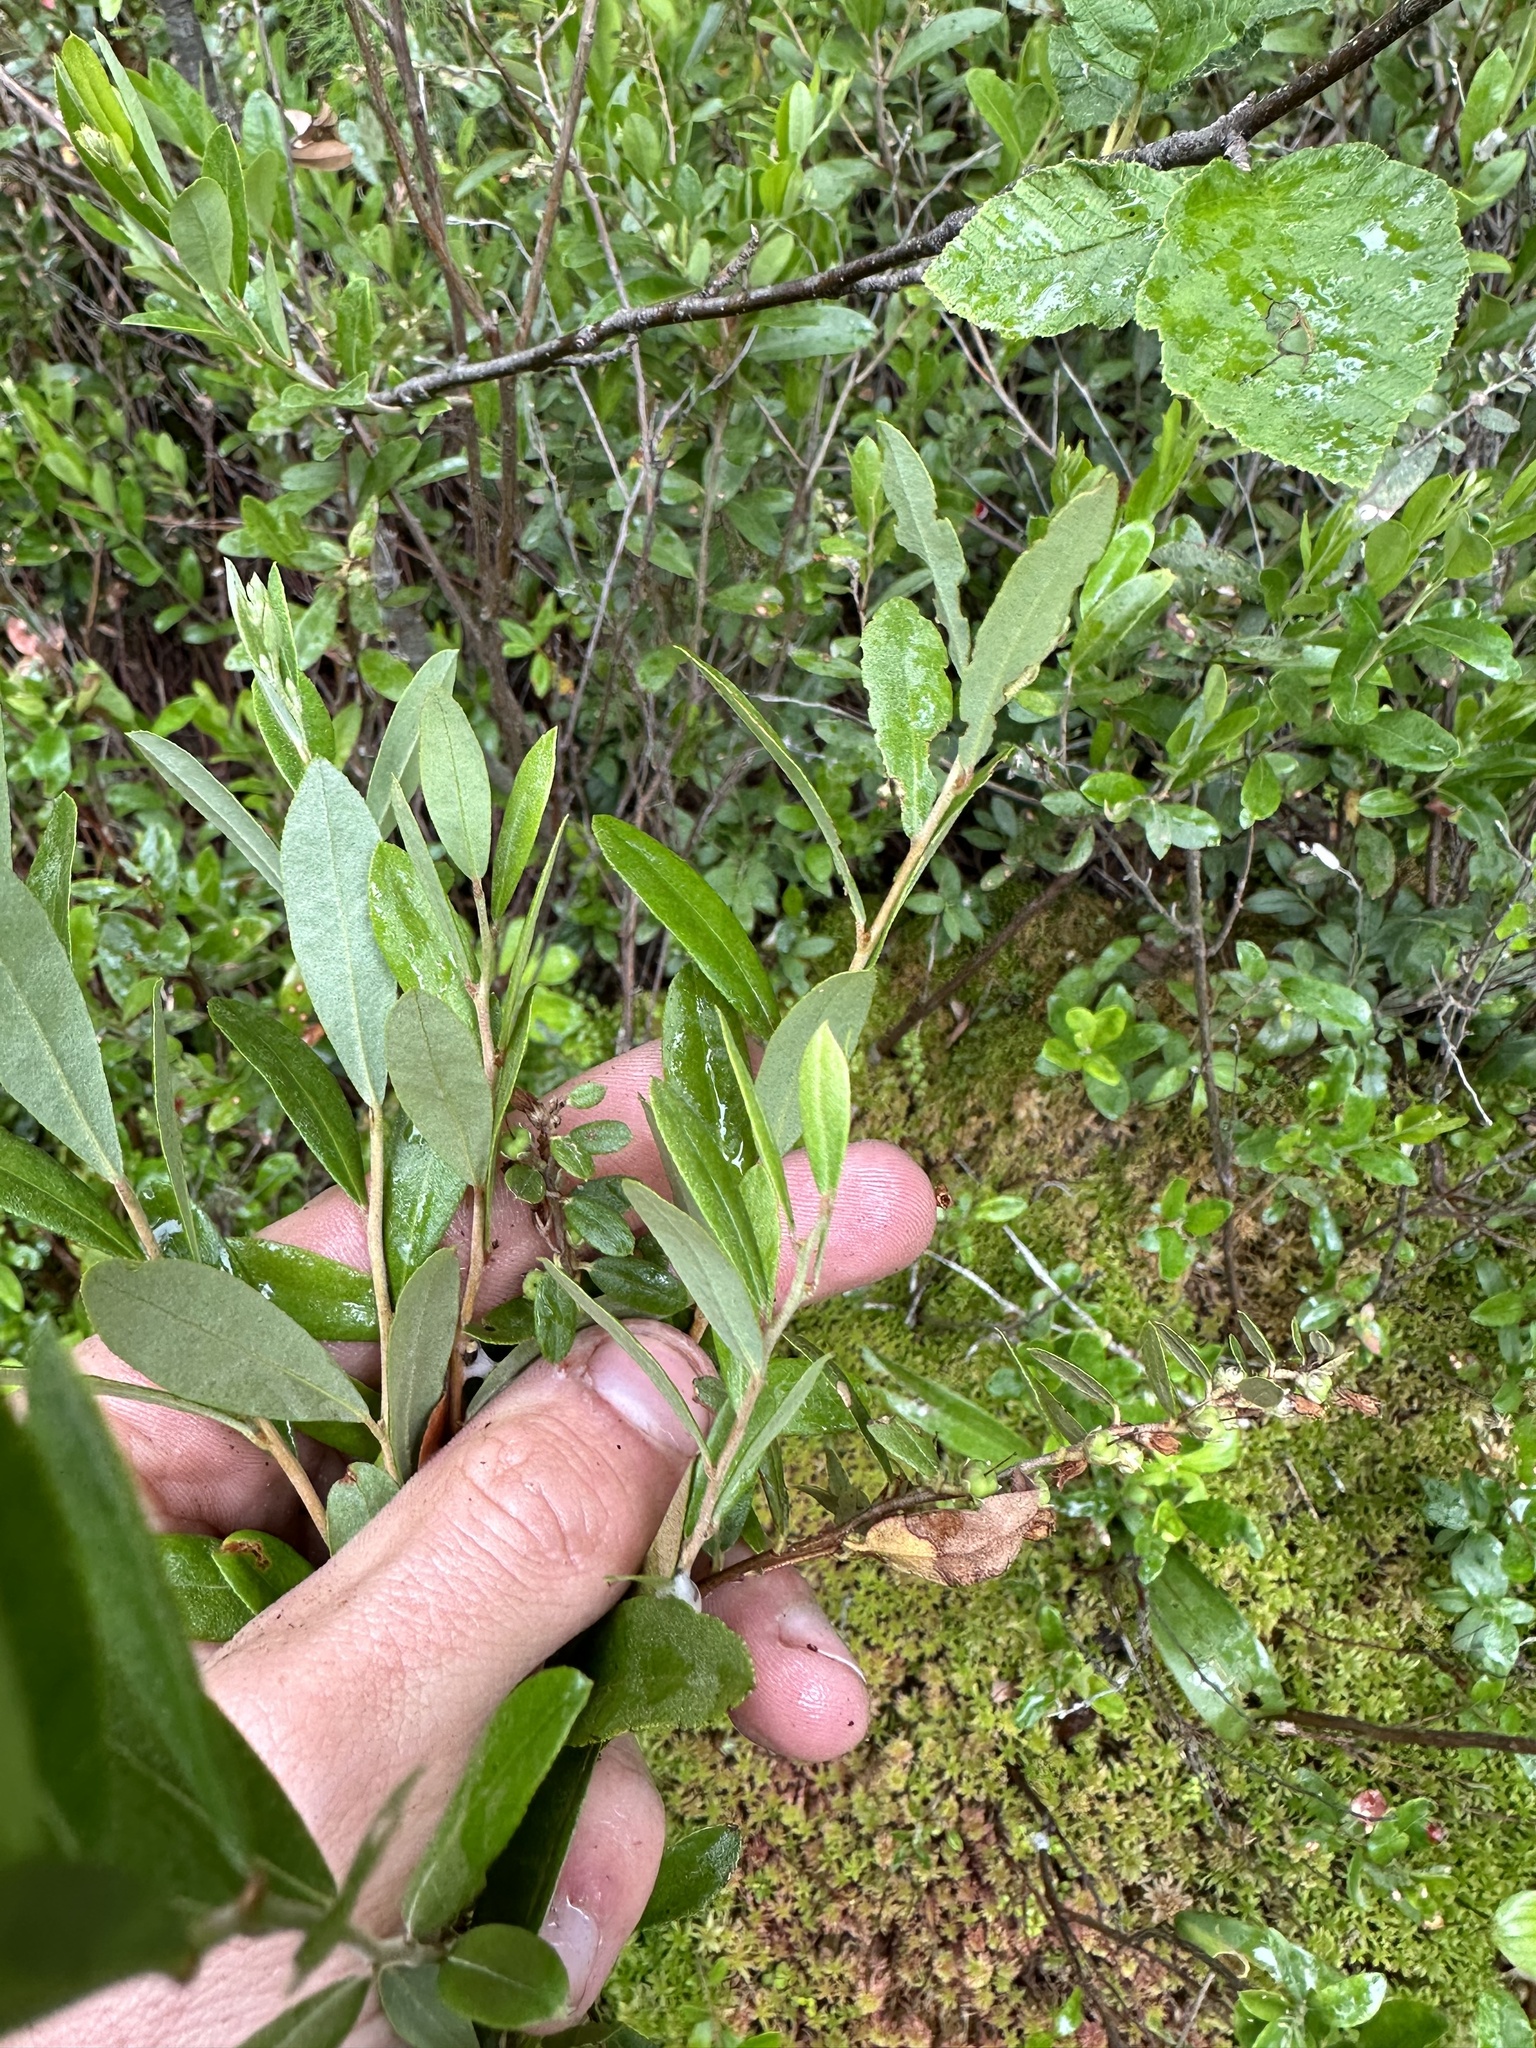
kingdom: Plantae
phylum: Tracheophyta
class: Magnoliopsida
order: Ericales
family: Ericaceae
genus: Chamaedaphne
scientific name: Chamaedaphne calyculata
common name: Leatherleaf
